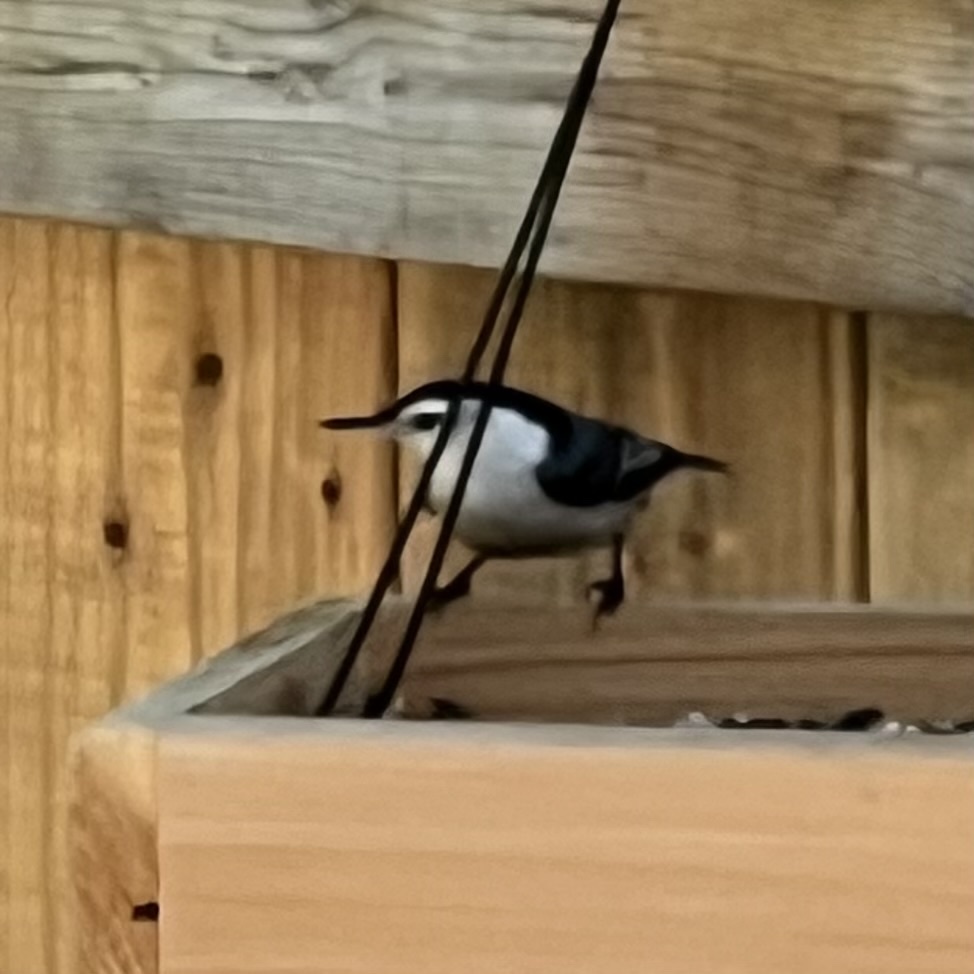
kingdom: Animalia
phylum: Chordata
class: Aves
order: Passeriformes
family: Sittidae
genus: Sitta
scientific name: Sitta carolinensis
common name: White-breasted nuthatch
